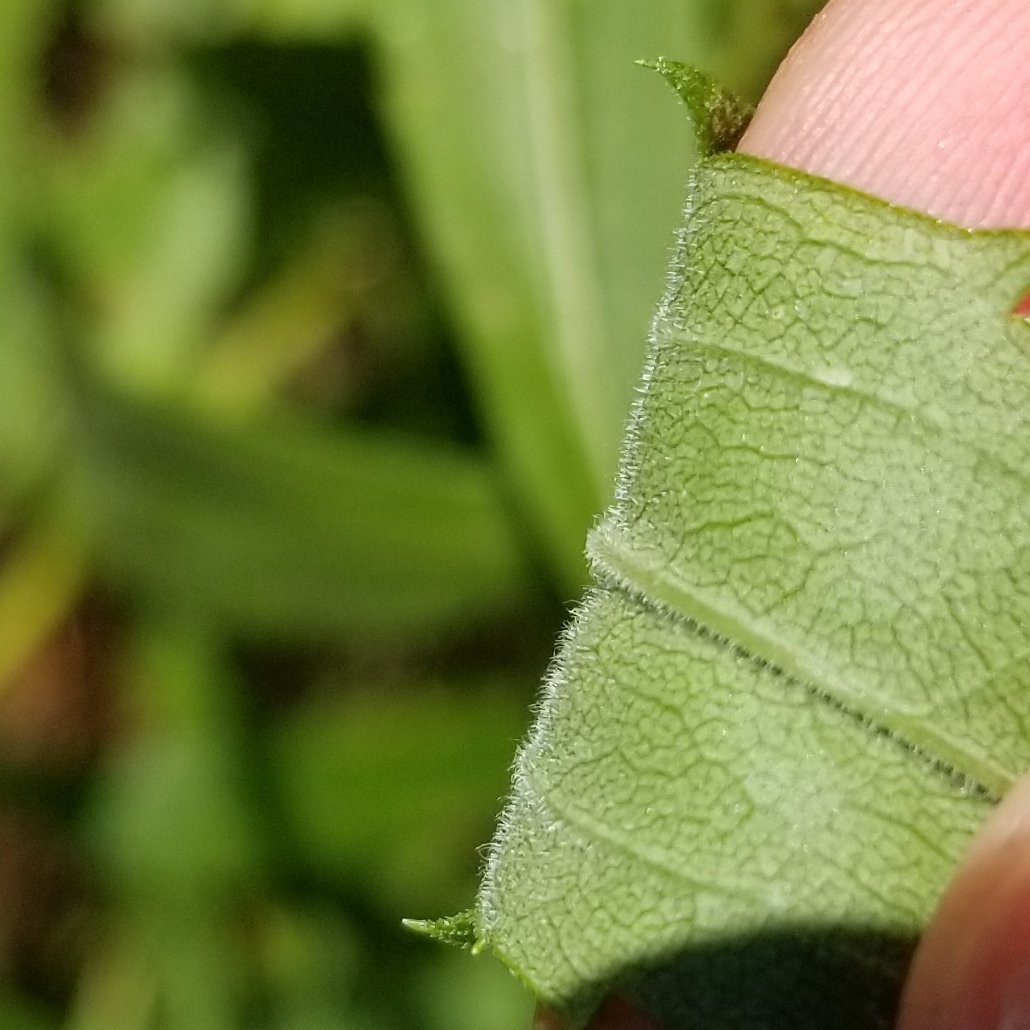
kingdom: Plantae
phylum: Tracheophyta
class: Magnoliopsida
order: Asterales
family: Asteraceae
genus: Solidago
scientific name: Solidago altissima
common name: Late goldenrod
